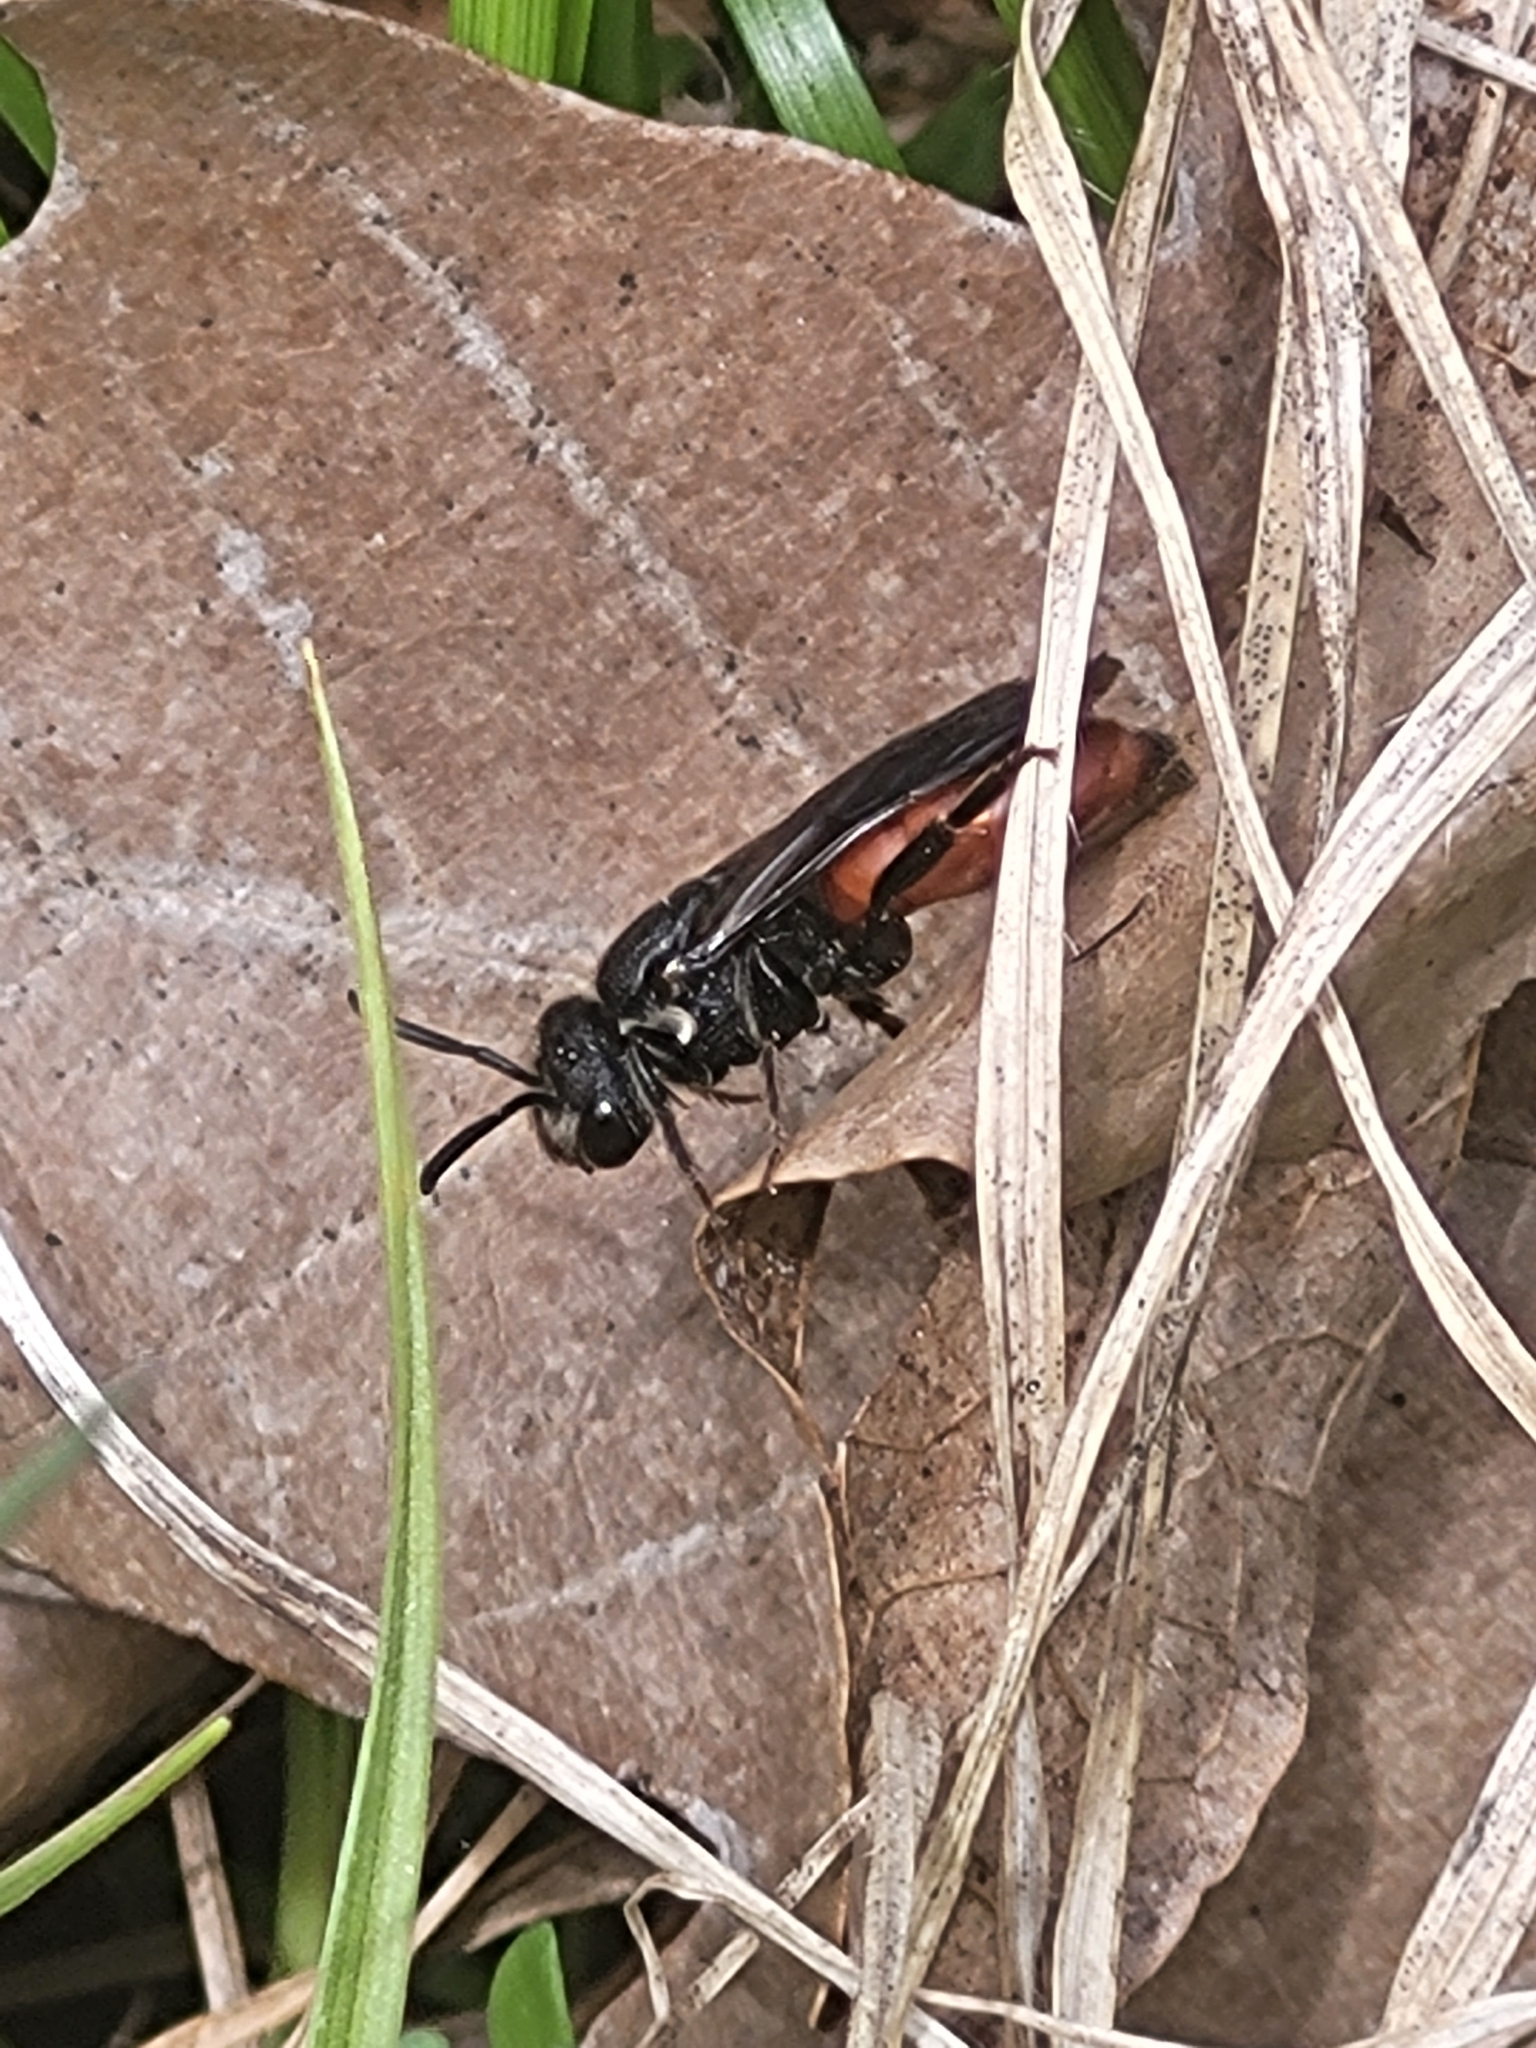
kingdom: Animalia
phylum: Arthropoda
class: Insecta
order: Hymenoptera
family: Halictidae
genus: Sphecodes
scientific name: Sphecodes albilabris
